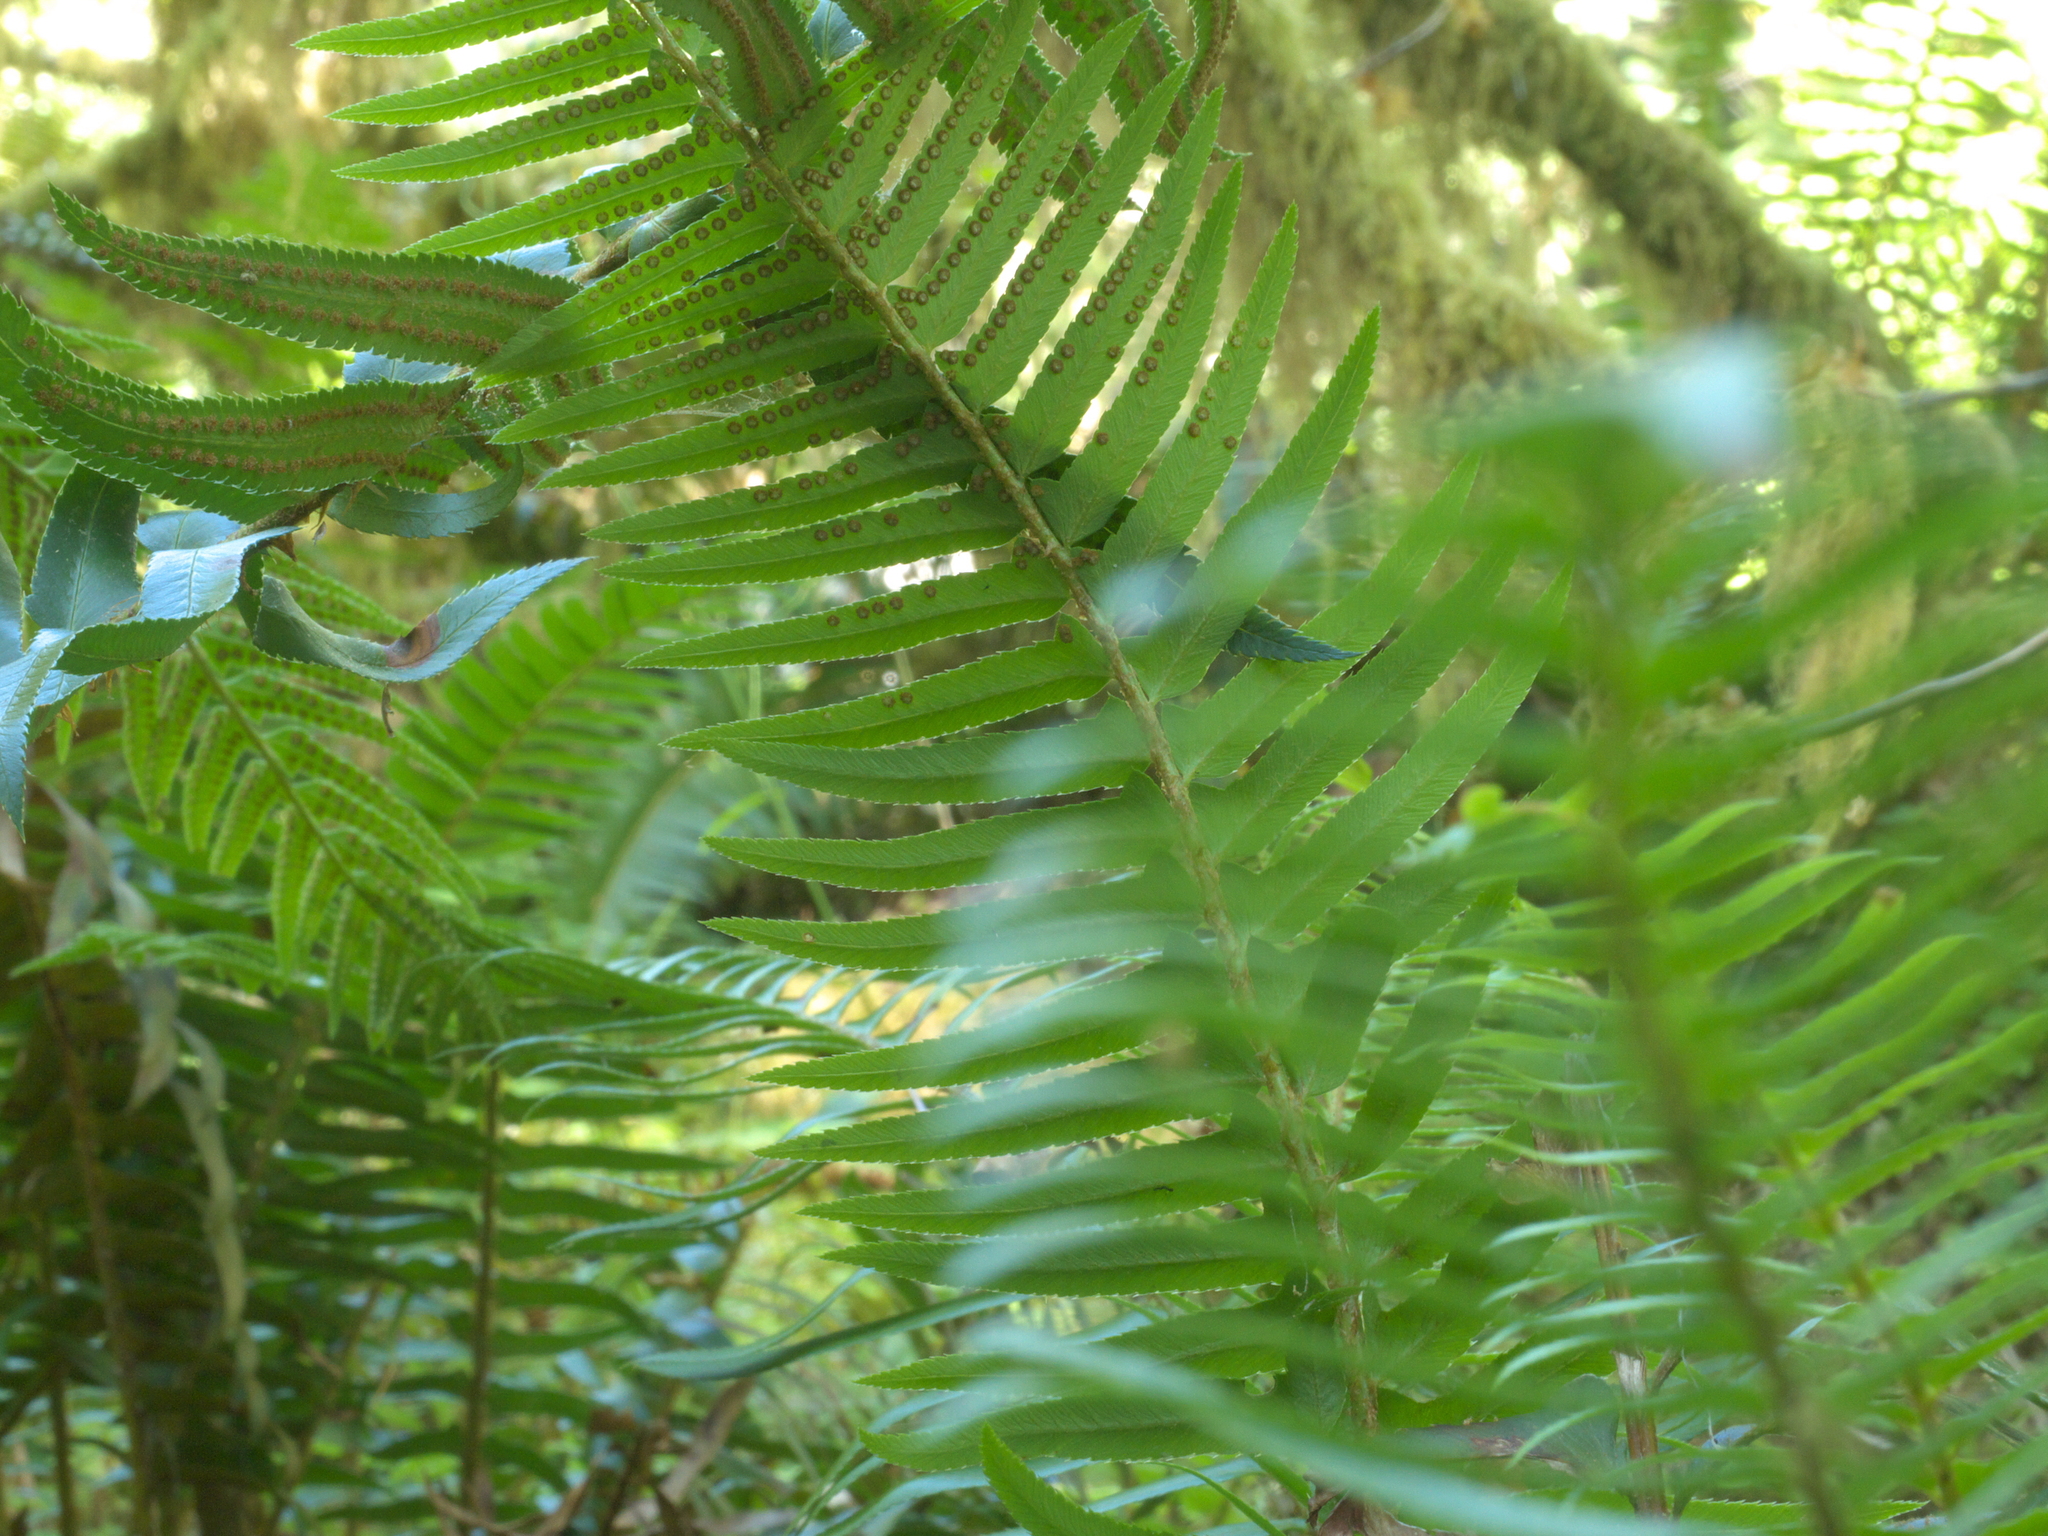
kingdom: Plantae
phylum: Tracheophyta
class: Polypodiopsida
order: Polypodiales
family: Dryopteridaceae
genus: Polystichum
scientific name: Polystichum munitum
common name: Western sword-fern
